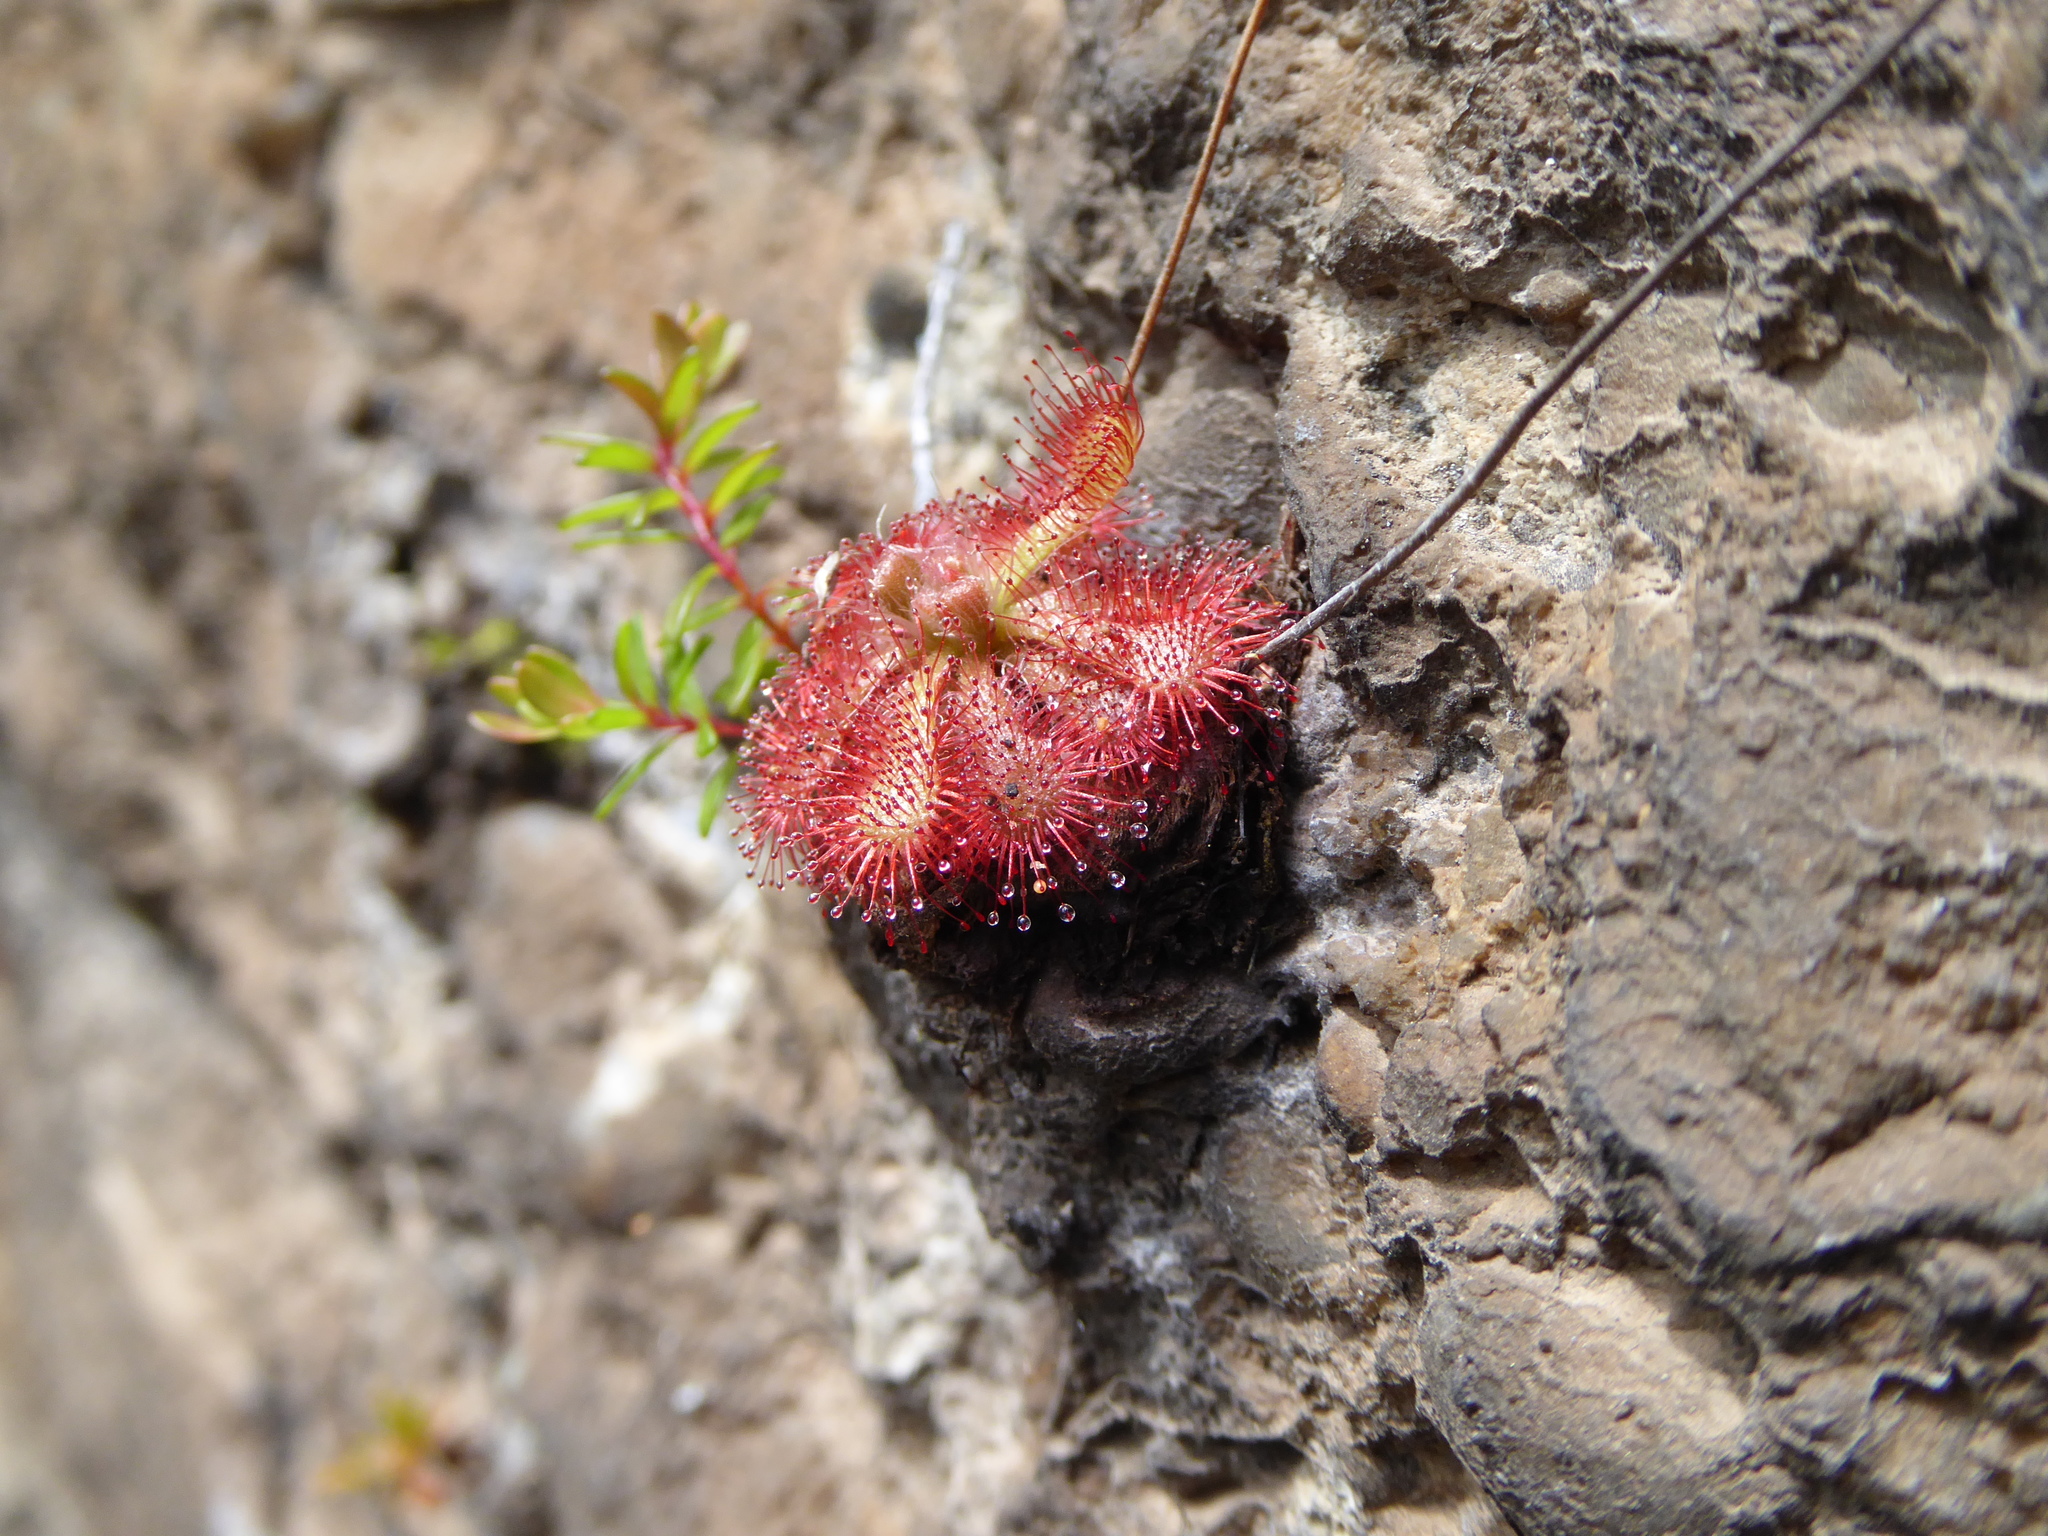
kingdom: Plantae
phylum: Tracheophyta
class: Magnoliopsida
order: Caryophyllales
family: Droseraceae
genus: Drosera
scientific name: Drosera spatulata
